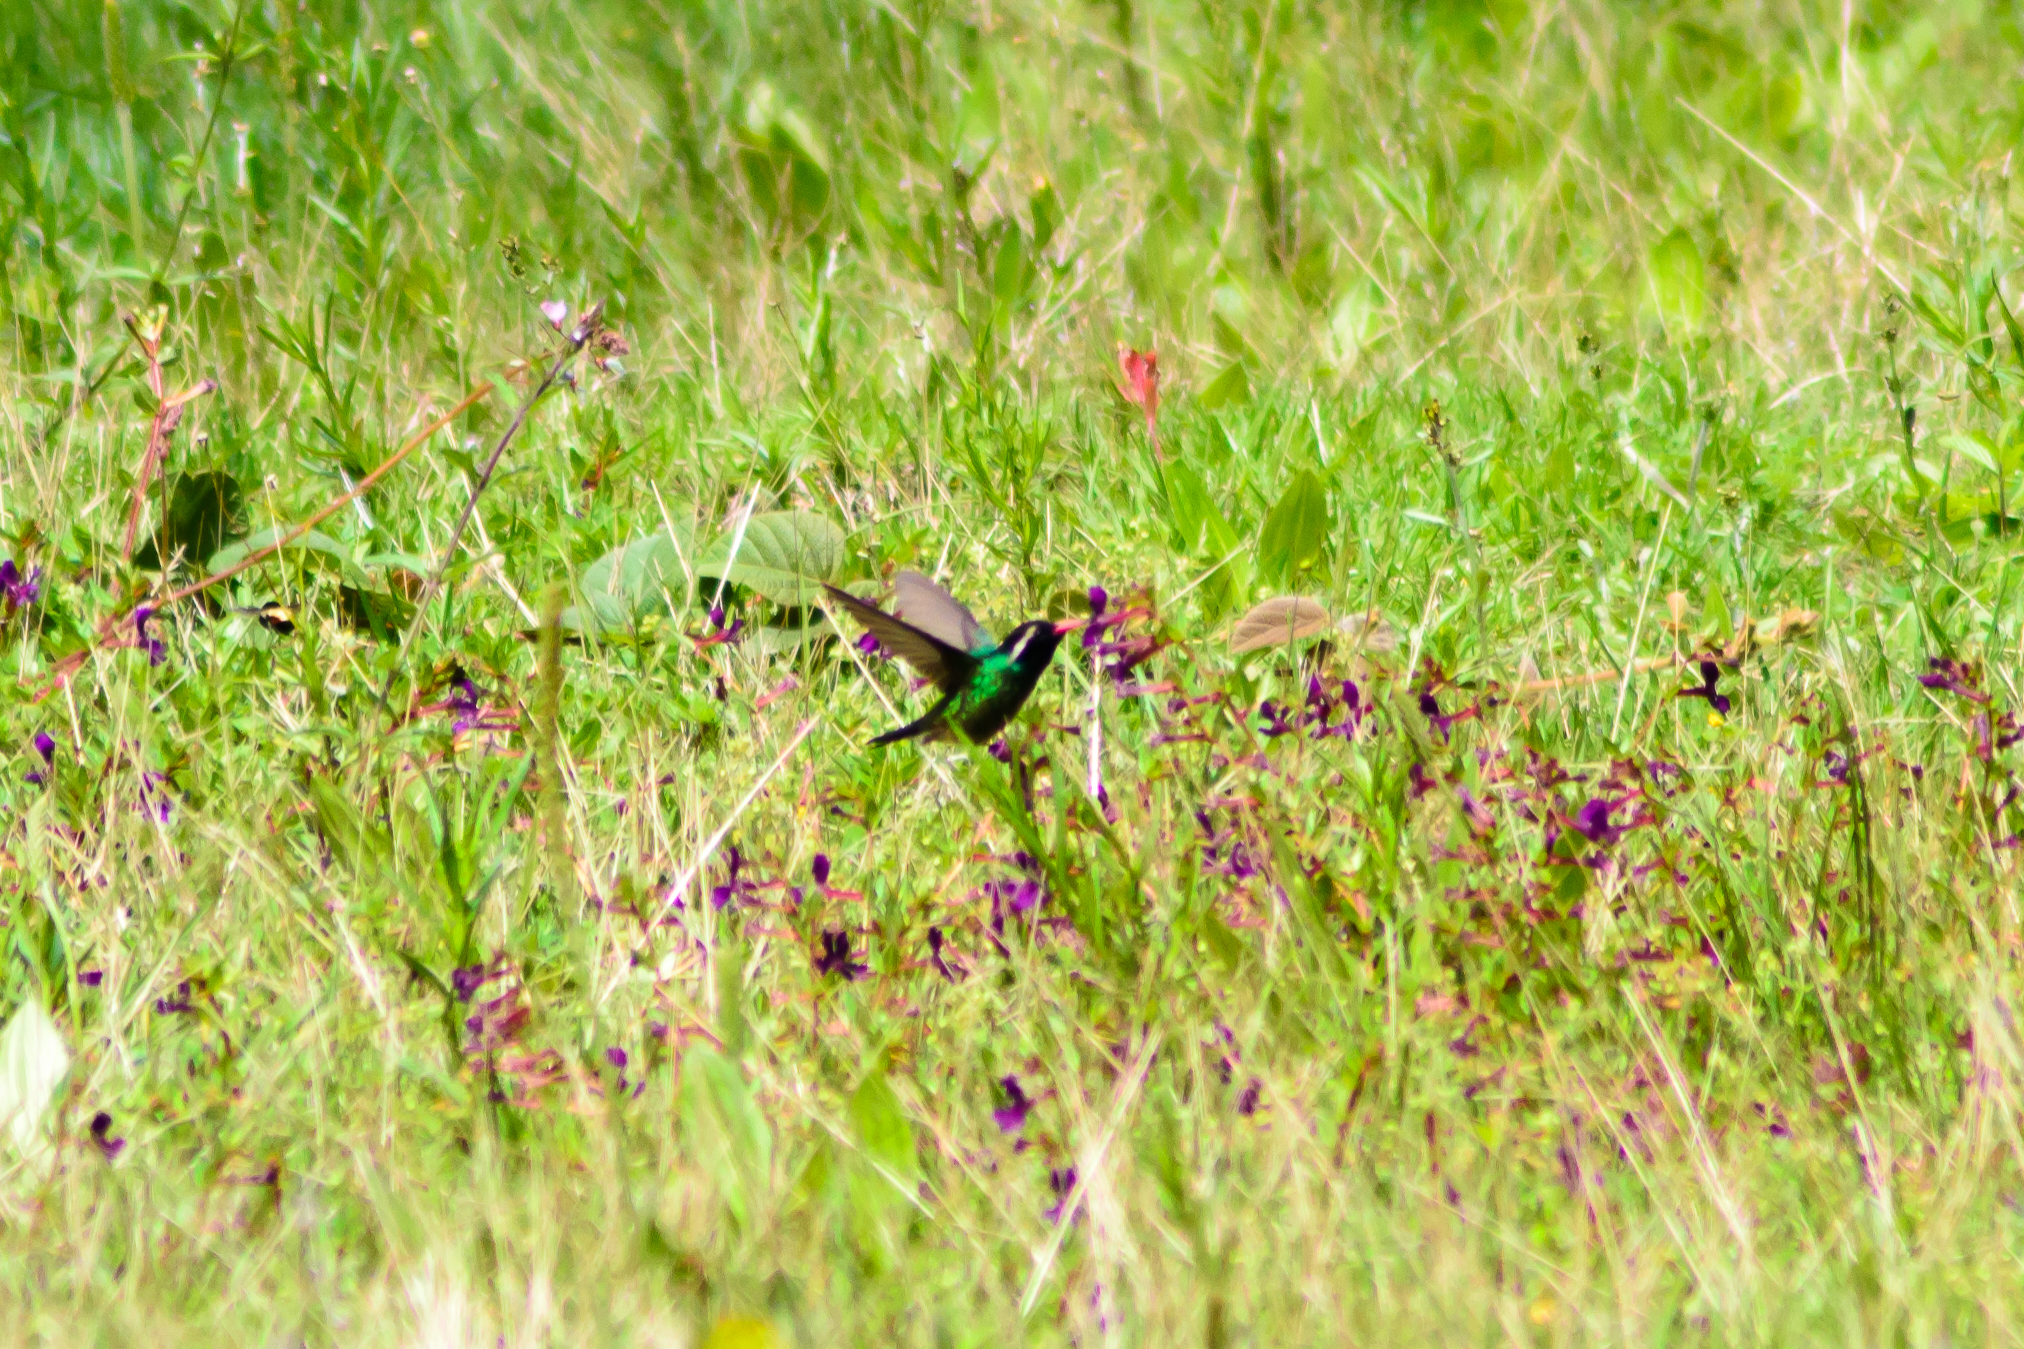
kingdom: Animalia
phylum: Chordata
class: Aves
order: Apodiformes
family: Trochilidae
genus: Basilinna
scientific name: Basilinna leucotis
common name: White-eared hummingbird
